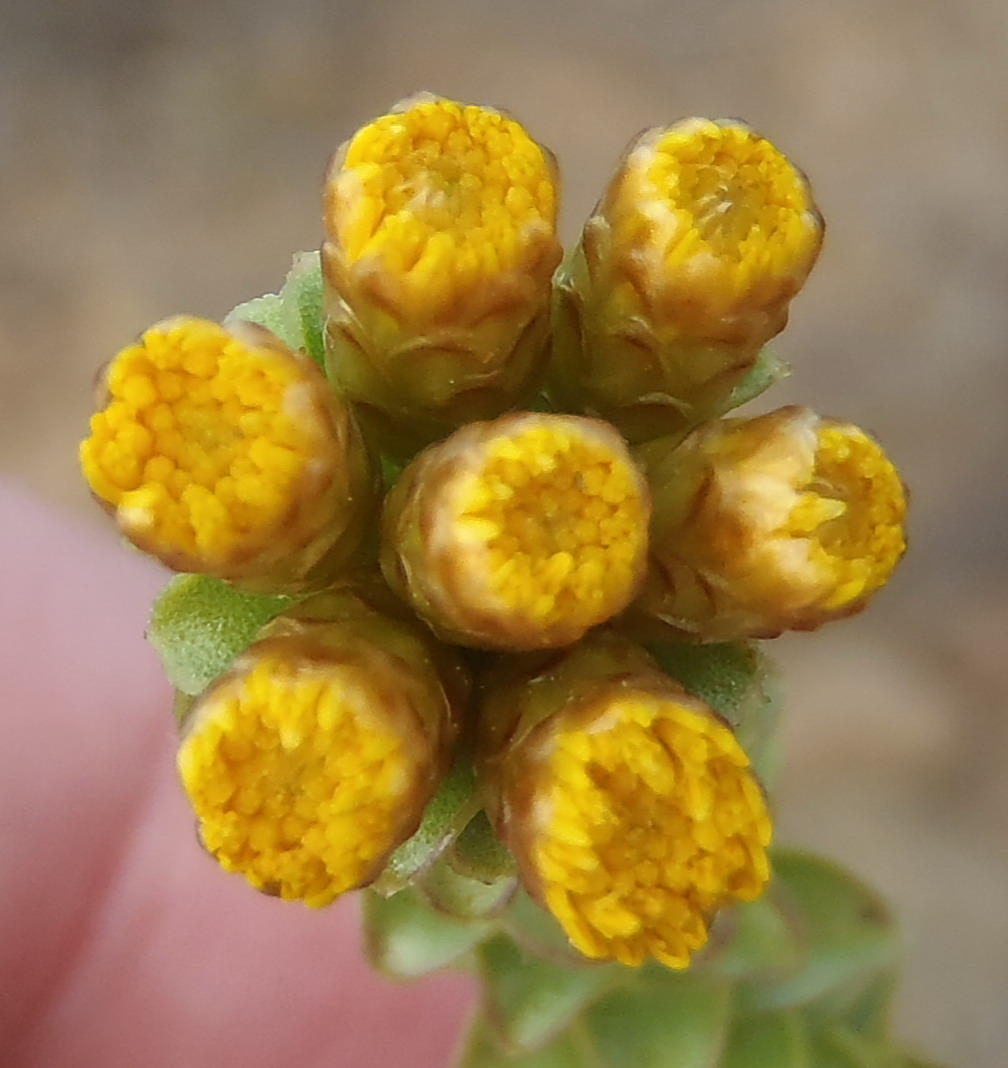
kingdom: Plantae
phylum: Tracheophyta
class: Magnoliopsida
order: Asterales
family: Asteraceae
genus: Oedera
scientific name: Oedera squarrosa
